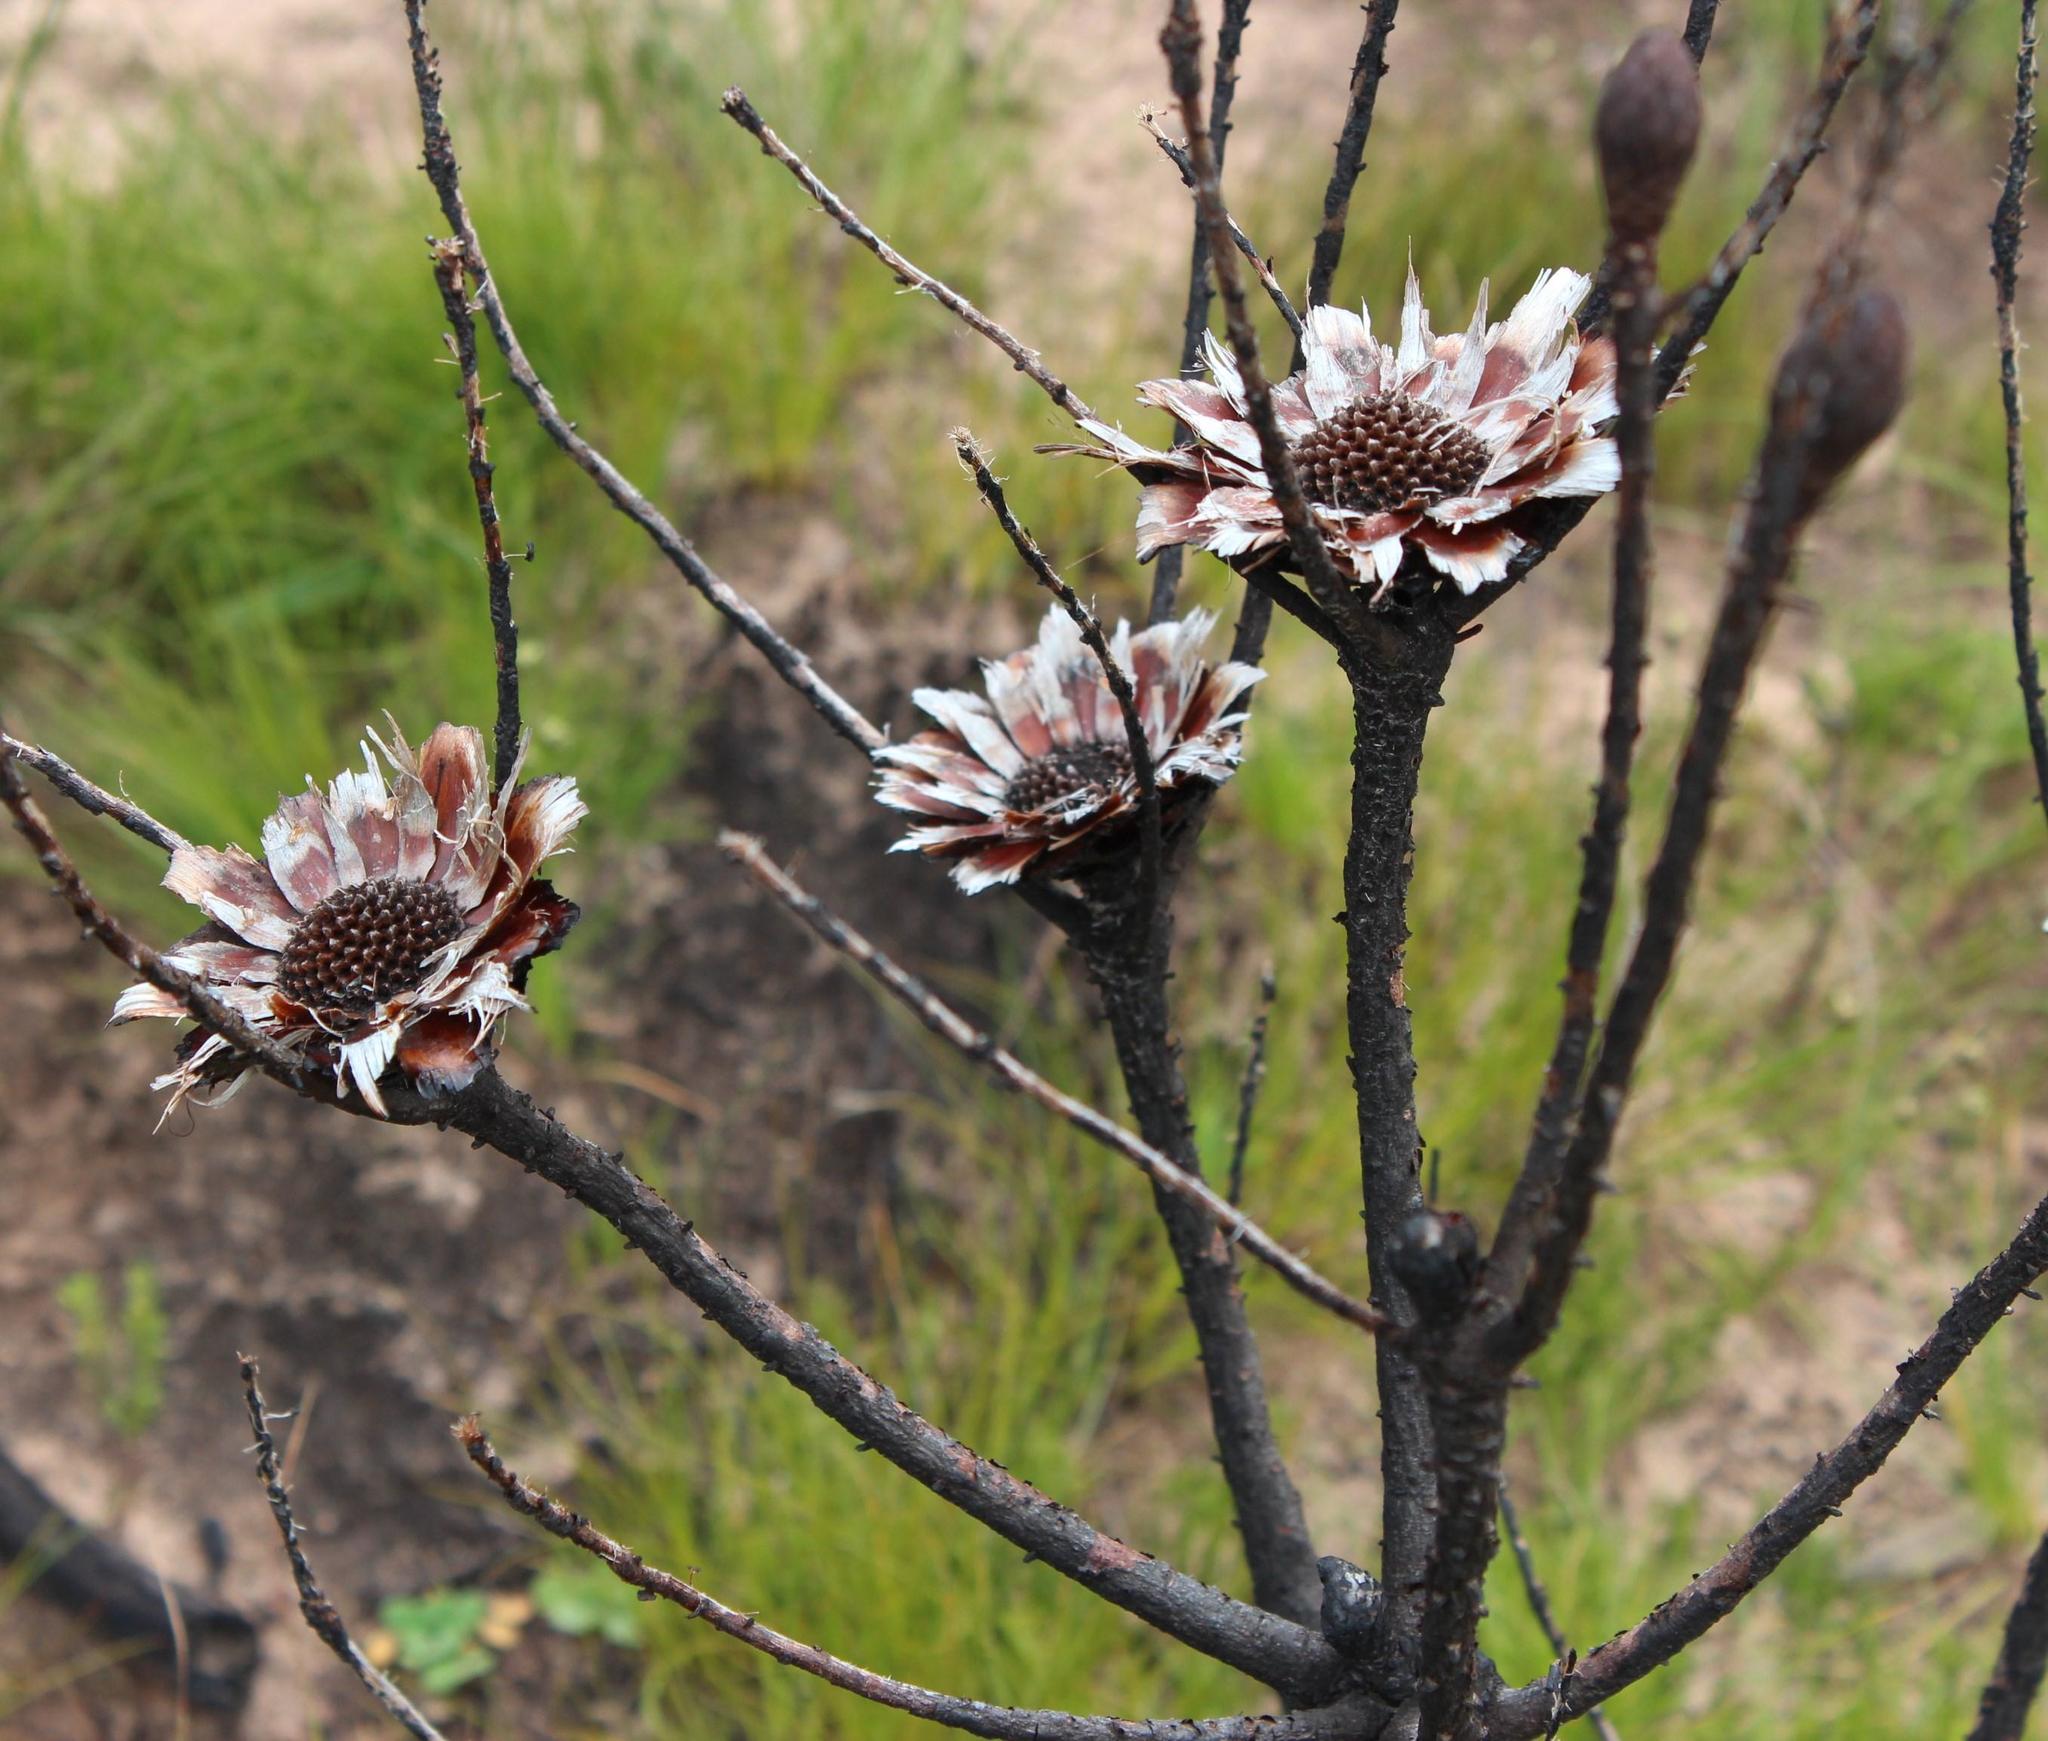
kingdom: Plantae
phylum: Tracheophyta
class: Magnoliopsida
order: Proteales
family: Proteaceae
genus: Protea
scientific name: Protea repens
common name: Sugarbush
